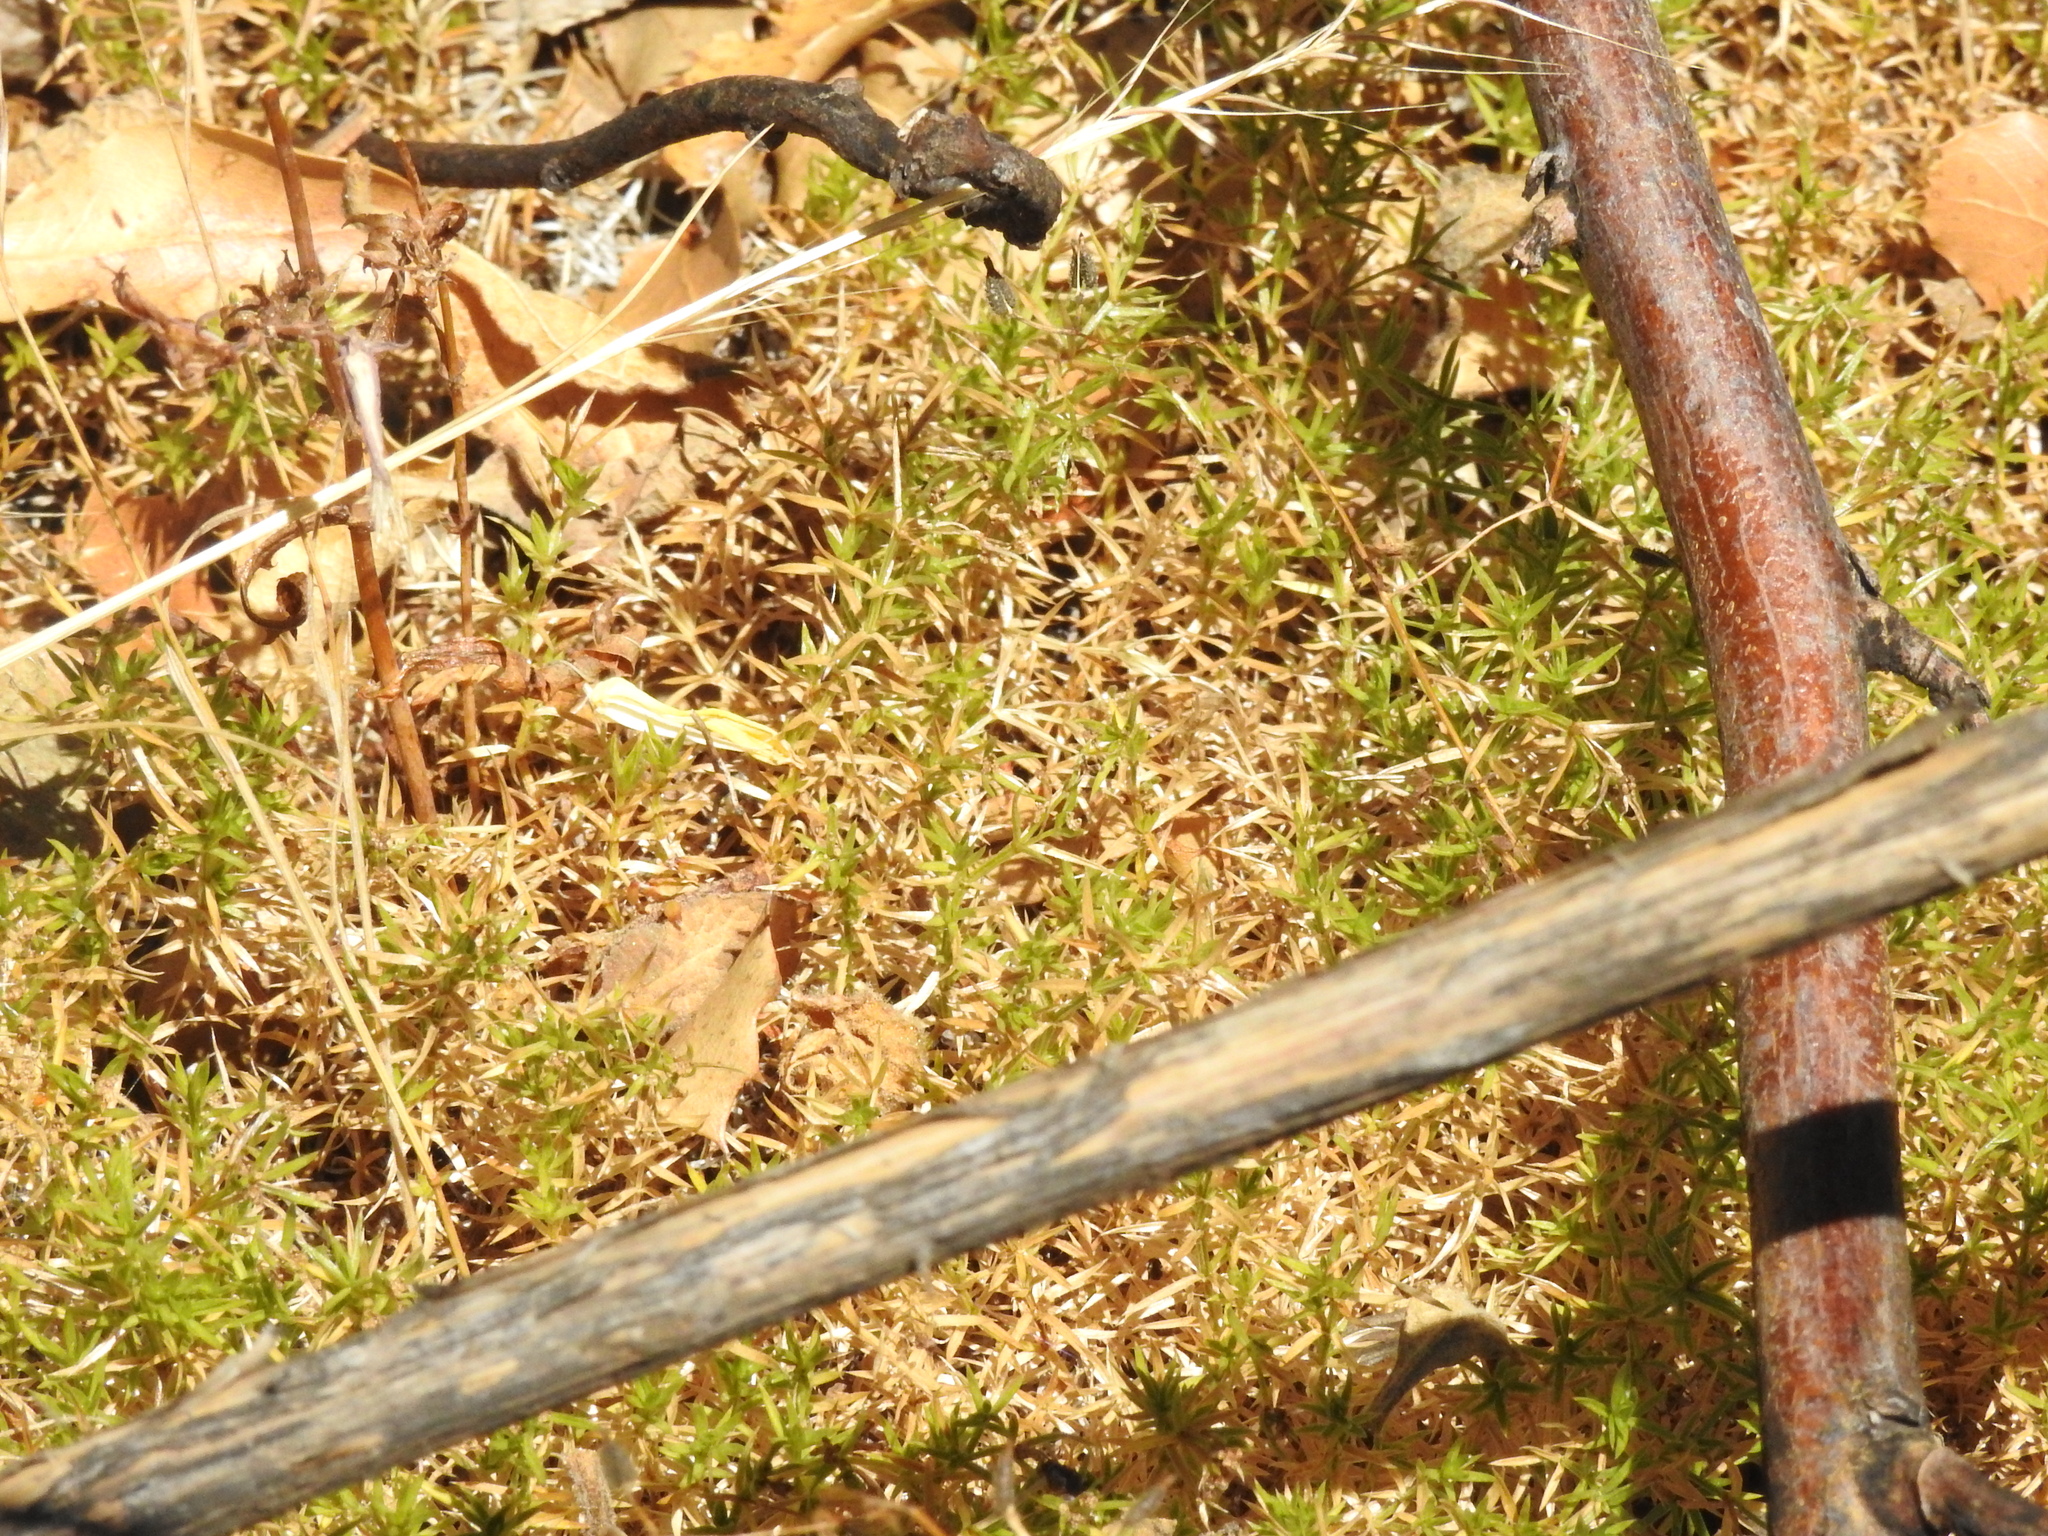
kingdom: Plantae
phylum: Tracheophyta
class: Magnoliopsida
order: Gentianales
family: Rubiaceae
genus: Galium
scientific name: Galium andrewsii
